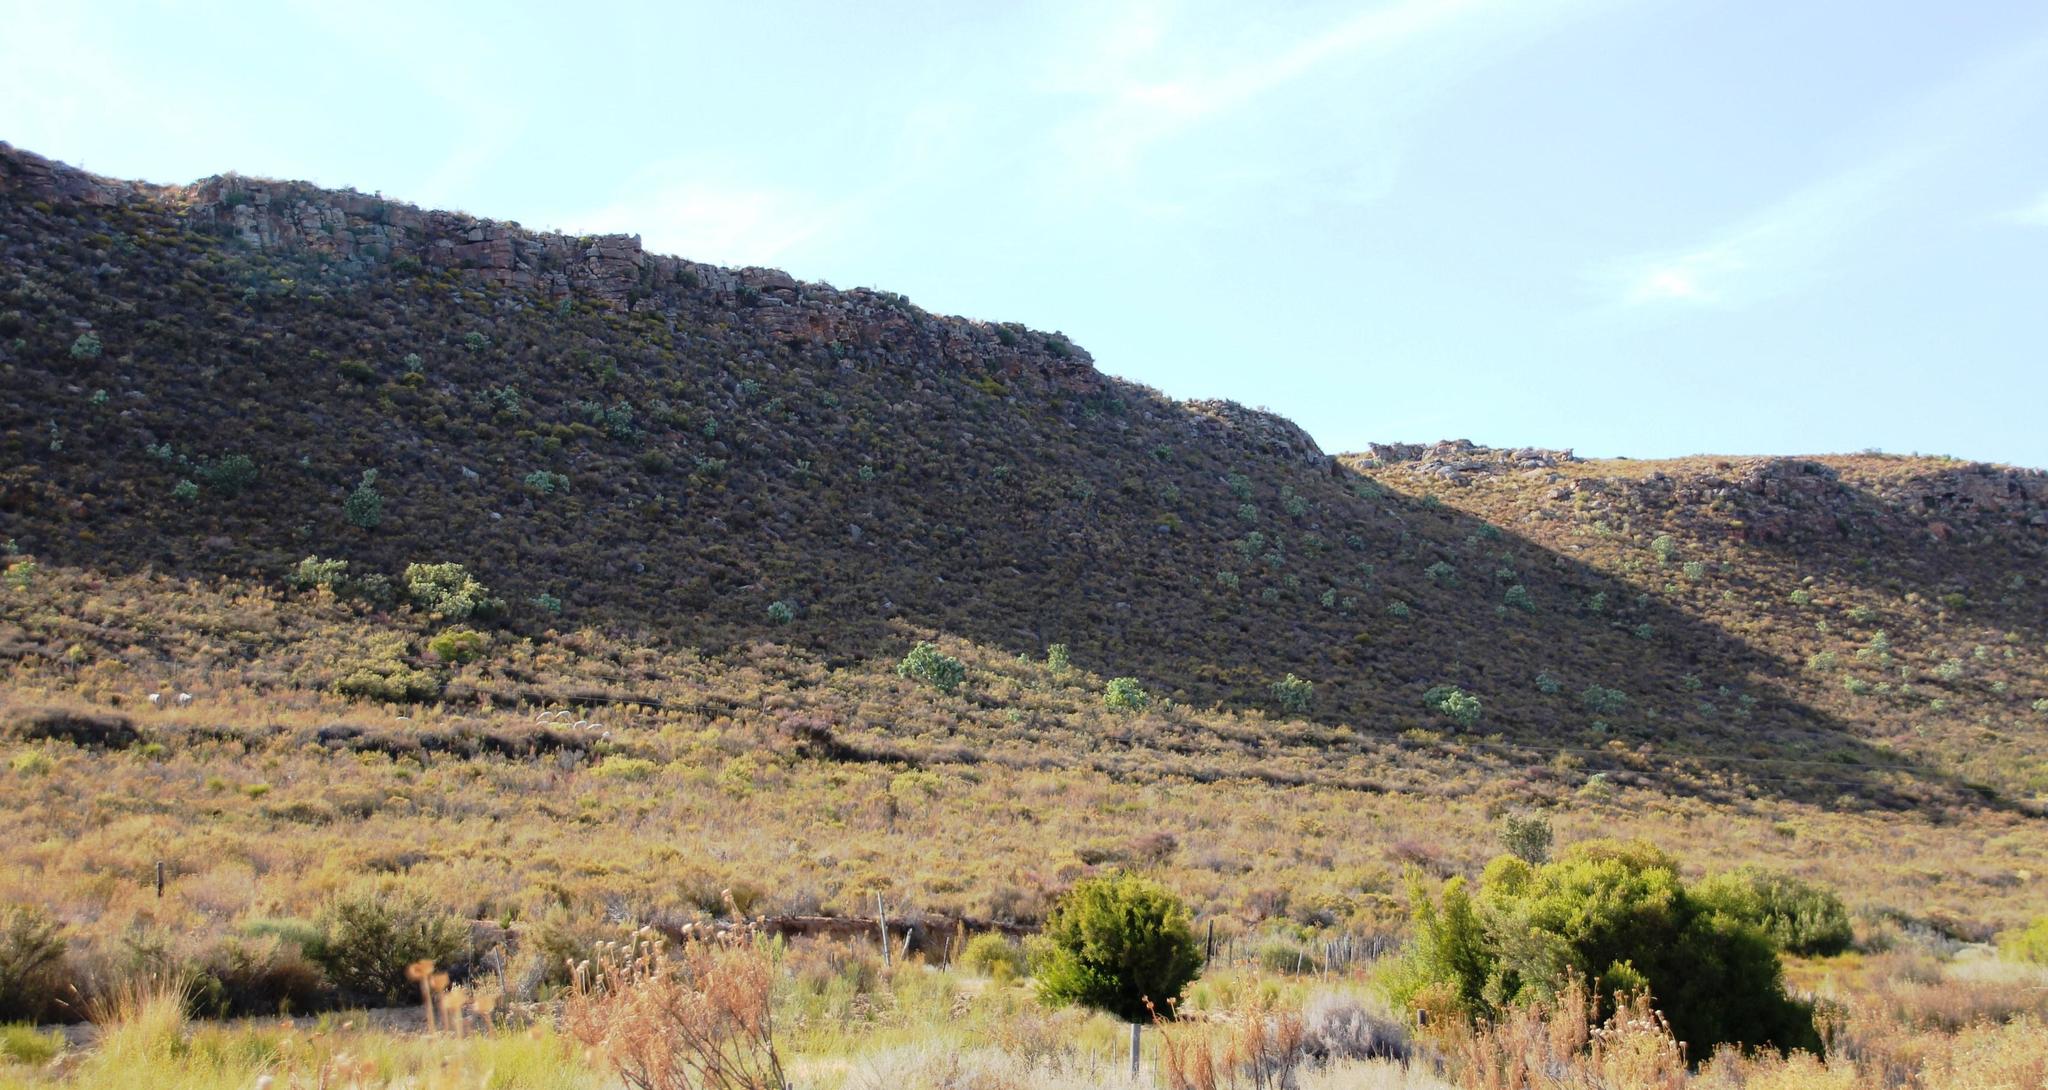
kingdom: Plantae
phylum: Tracheophyta
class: Magnoliopsida
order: Proteales
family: Proteaceae
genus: Protea
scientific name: Protea nitida
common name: Tree protea
